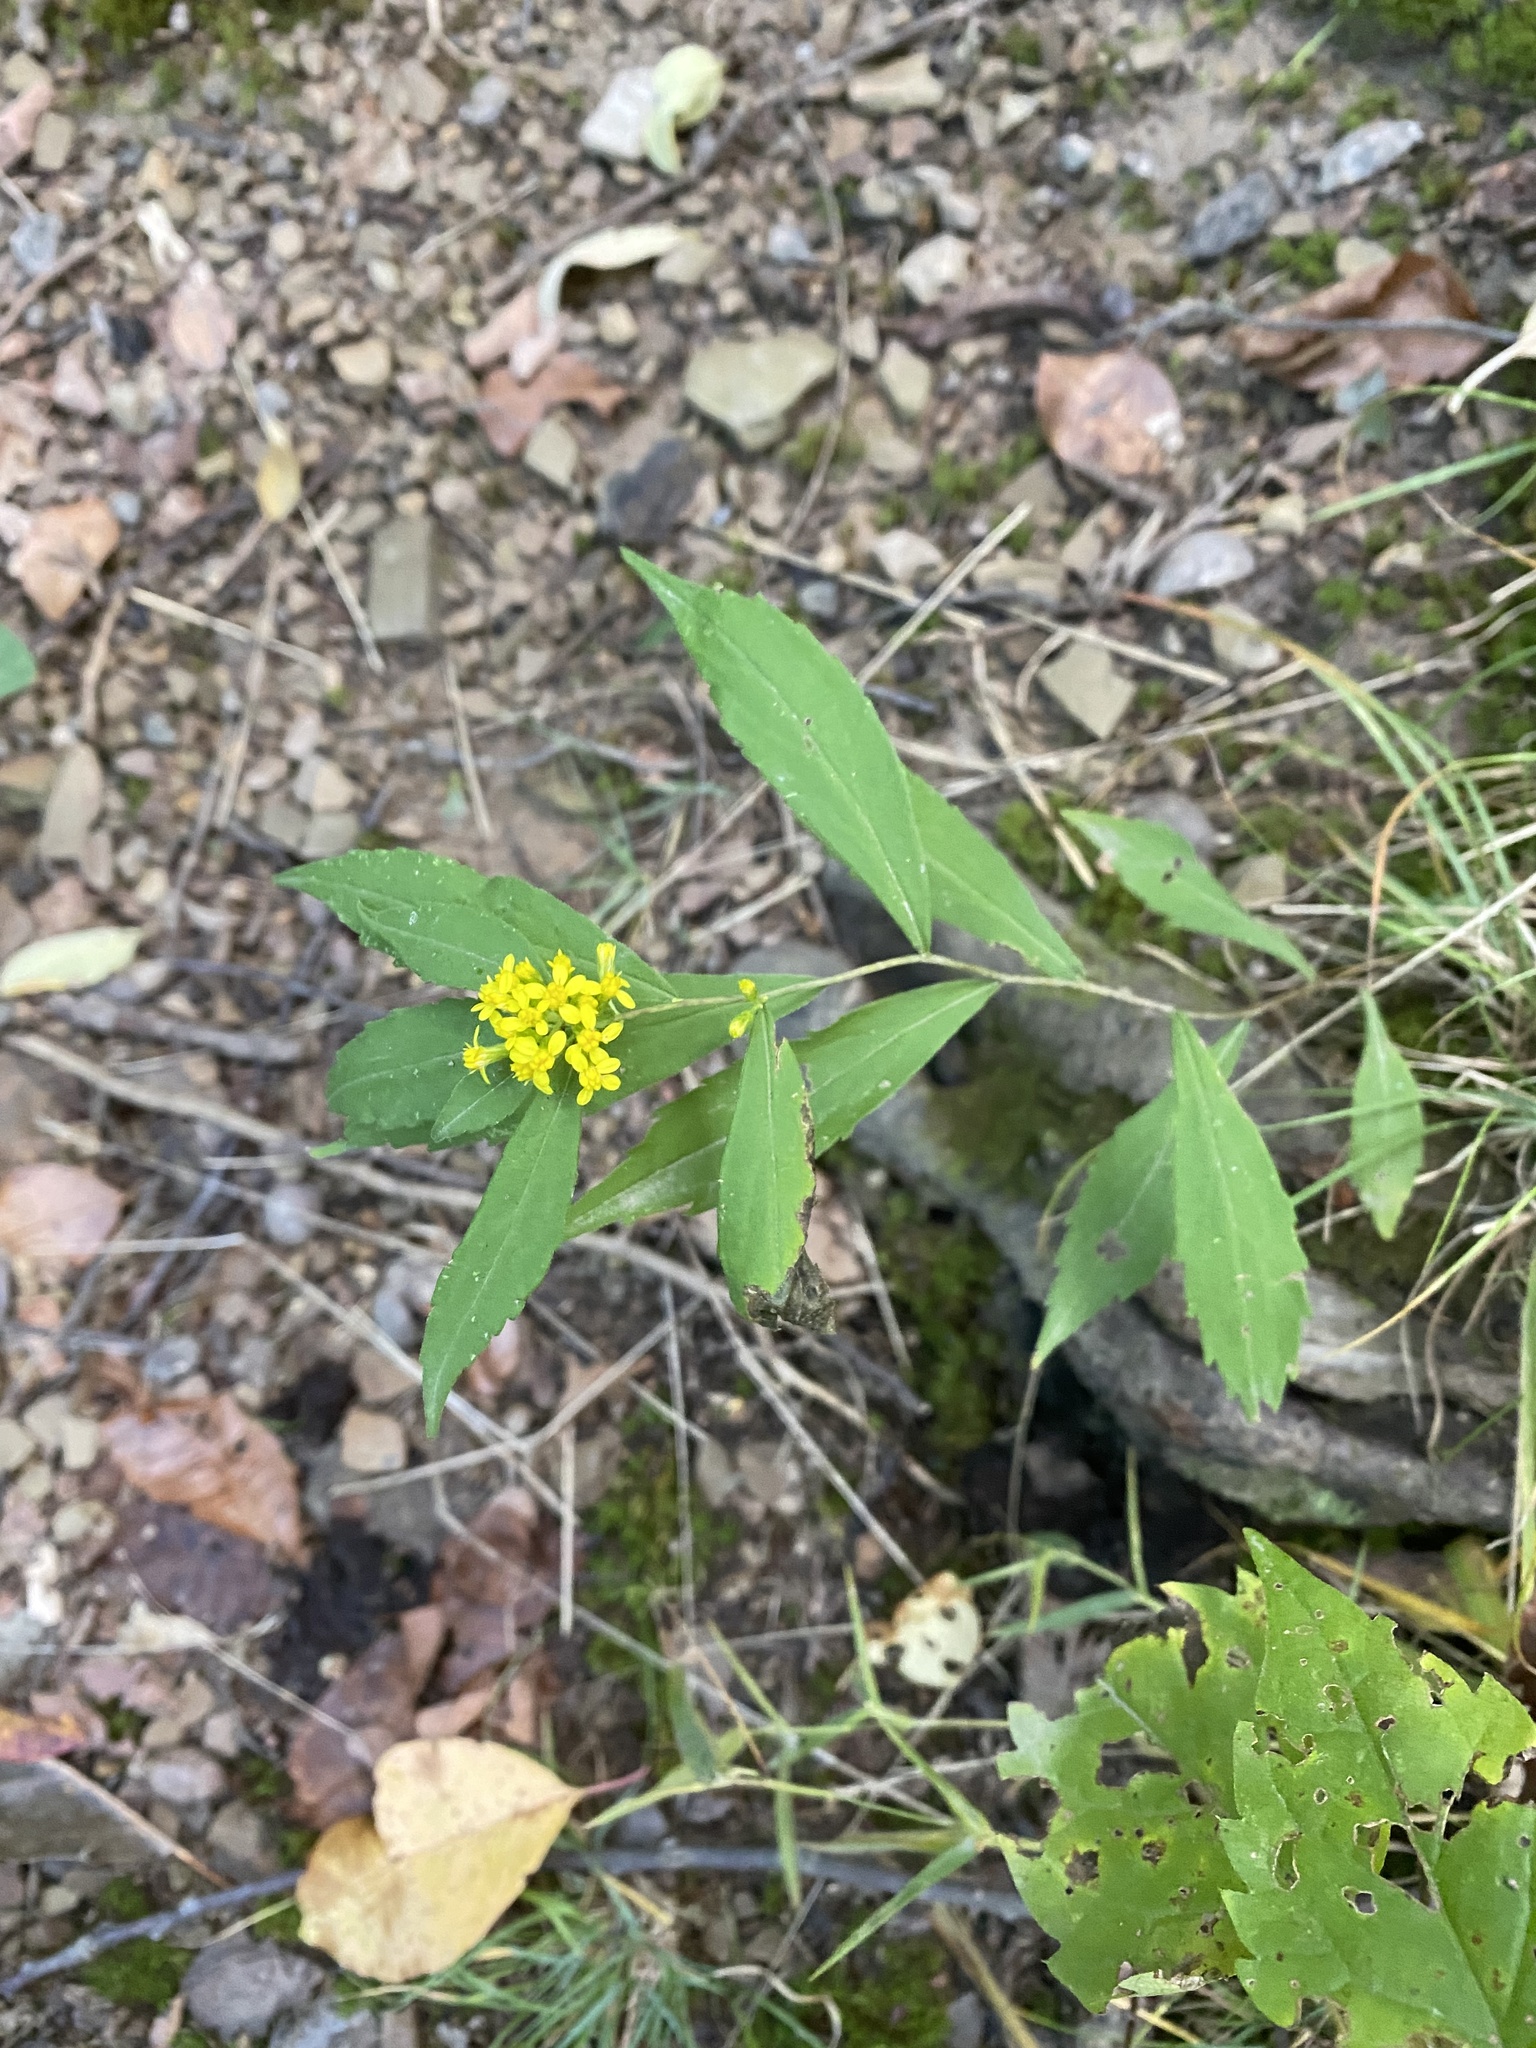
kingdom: Plantae
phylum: Tracheophyta
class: Magnoliopsida
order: Asterales
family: Asteraceae
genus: Solidago
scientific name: Solidago caesia
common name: Woodland goldenrod
